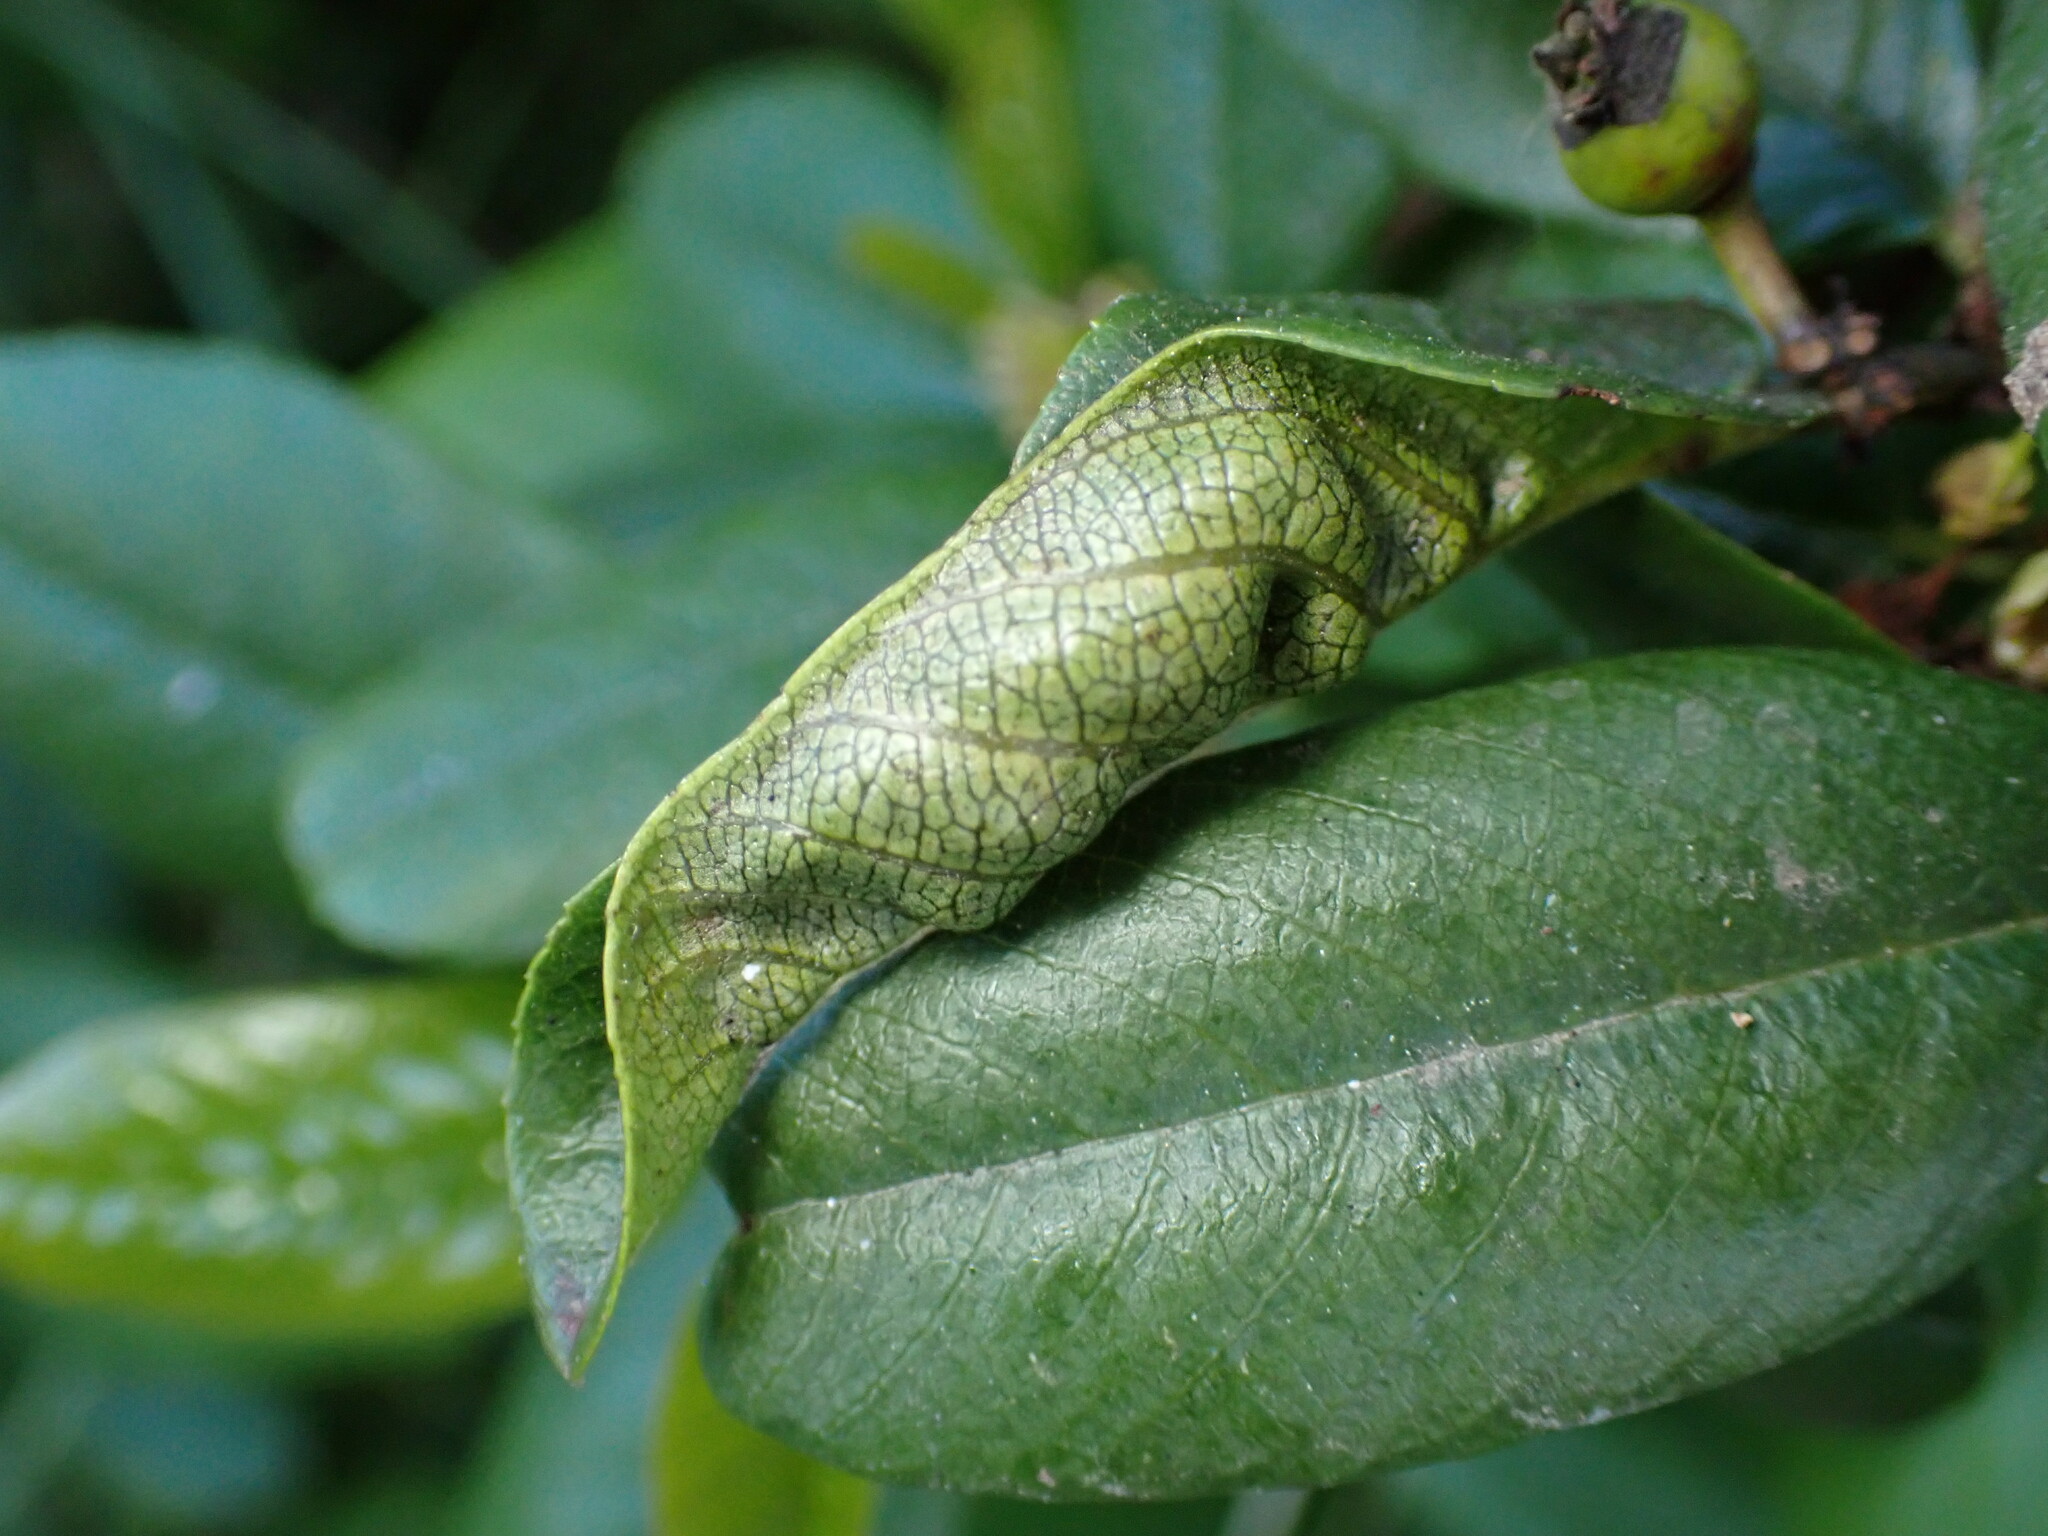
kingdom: Animalia
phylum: Arthropoda
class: Insecta
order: Lepidoptera
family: Cosmopterigidae
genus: Sorhagenia
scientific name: Sorhagenia nimbosus
